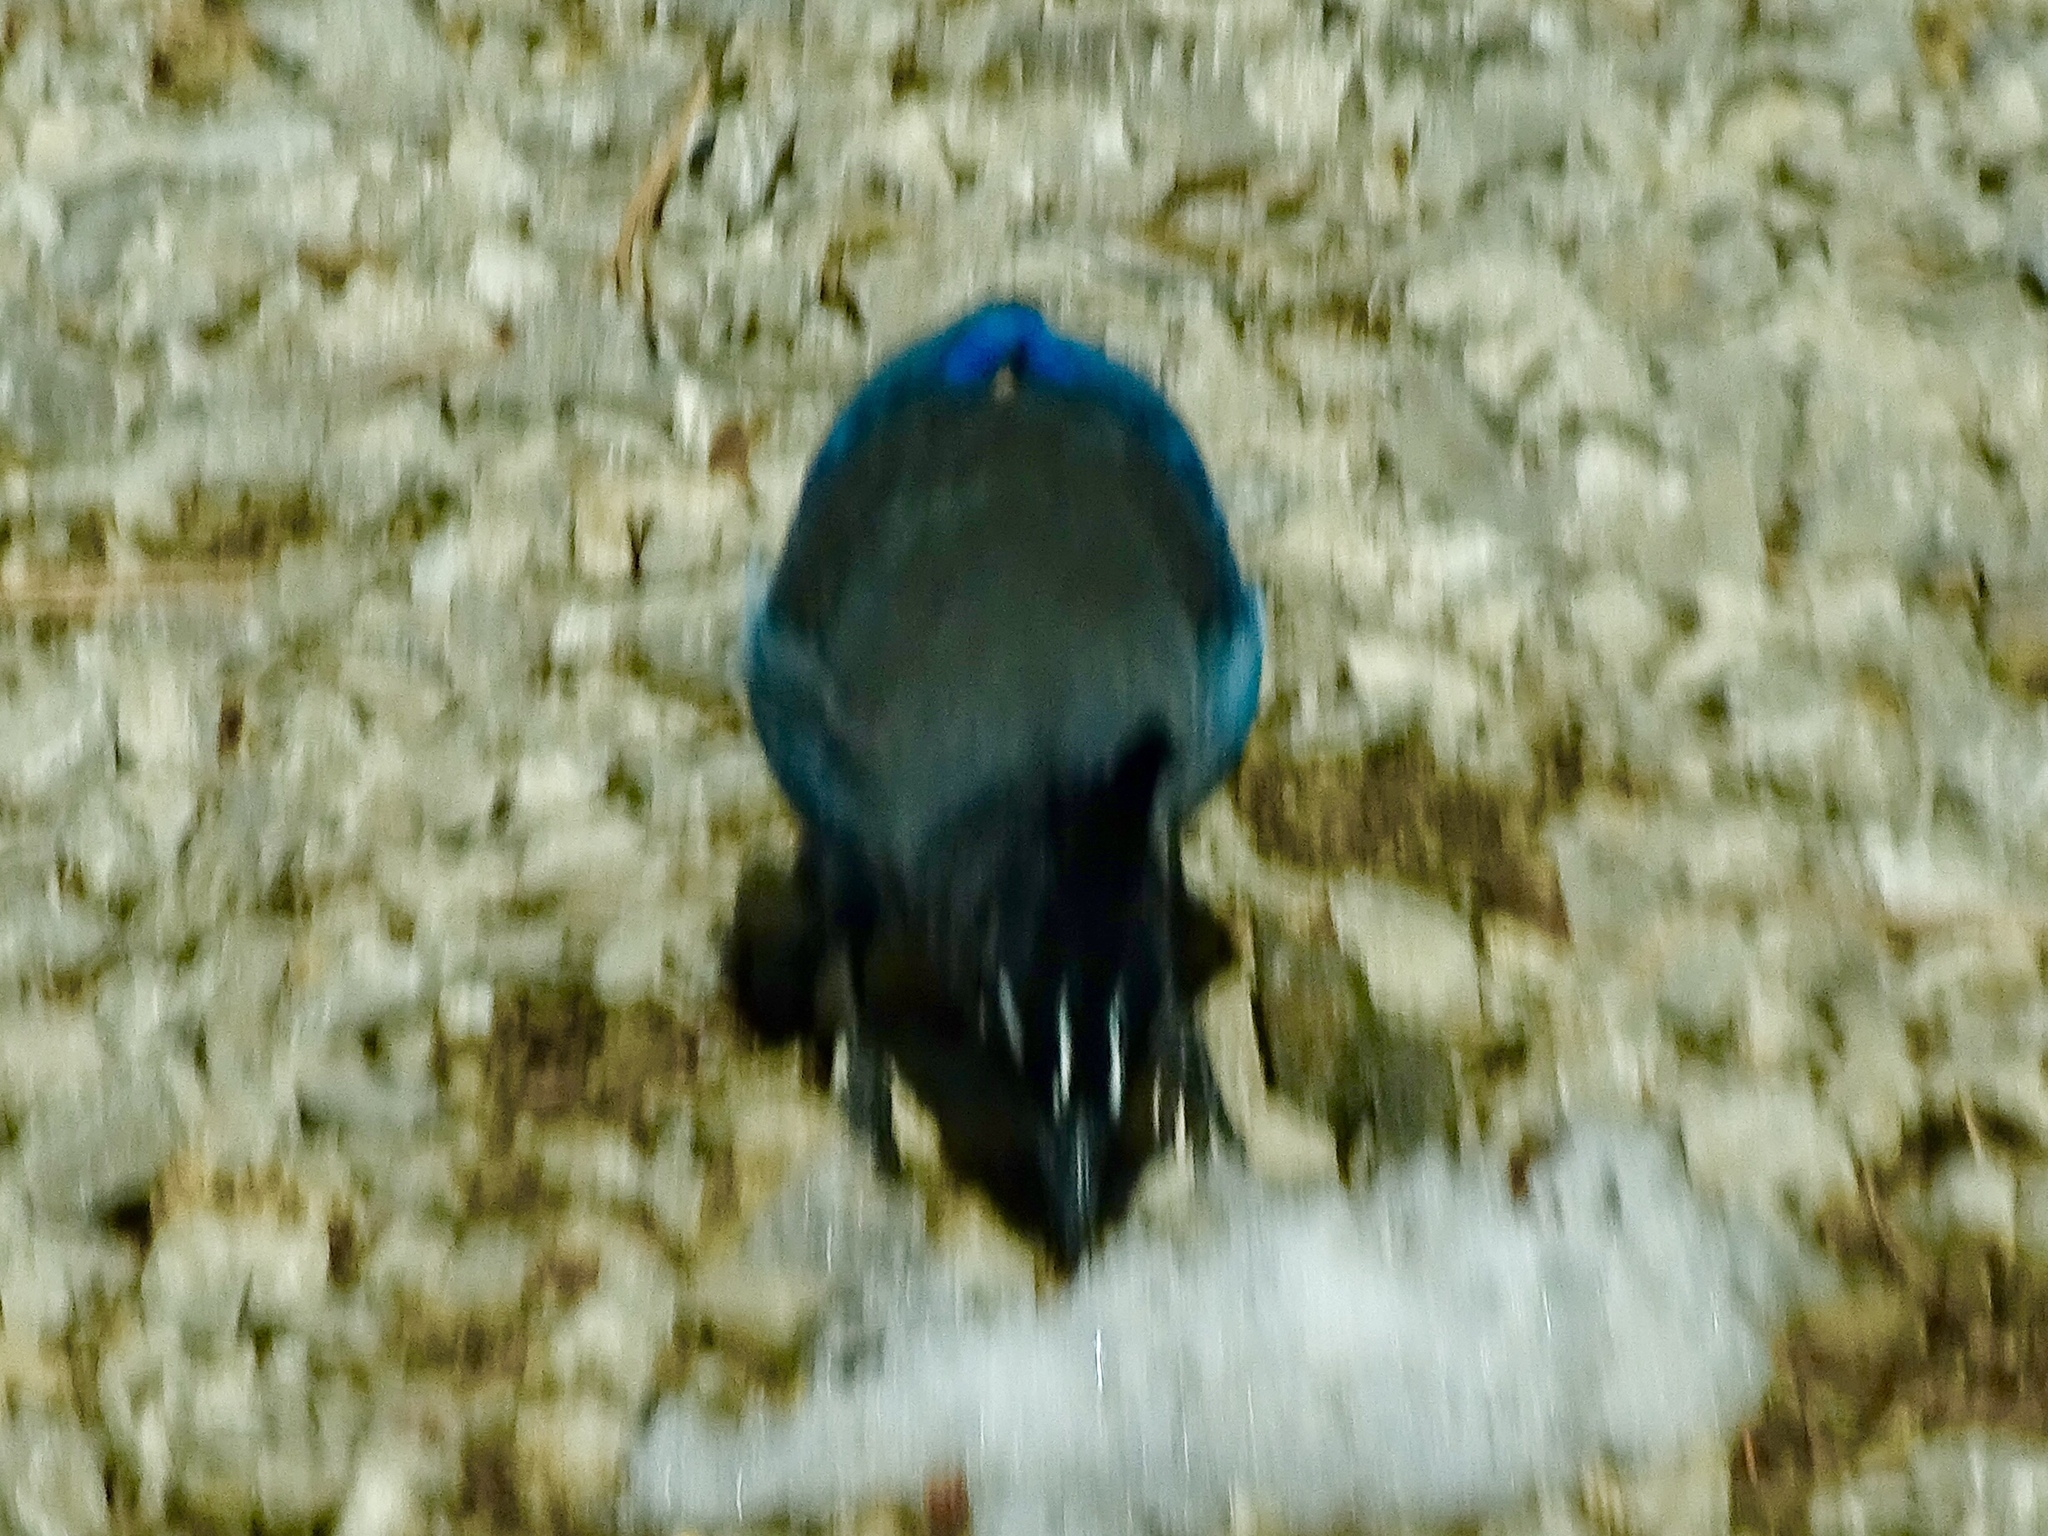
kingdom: Animalia
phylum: Chordata
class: Aves
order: Passeriformes
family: Corvidae
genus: Cyanocitta
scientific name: Cyanocitta stelleri
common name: Steller's jay
